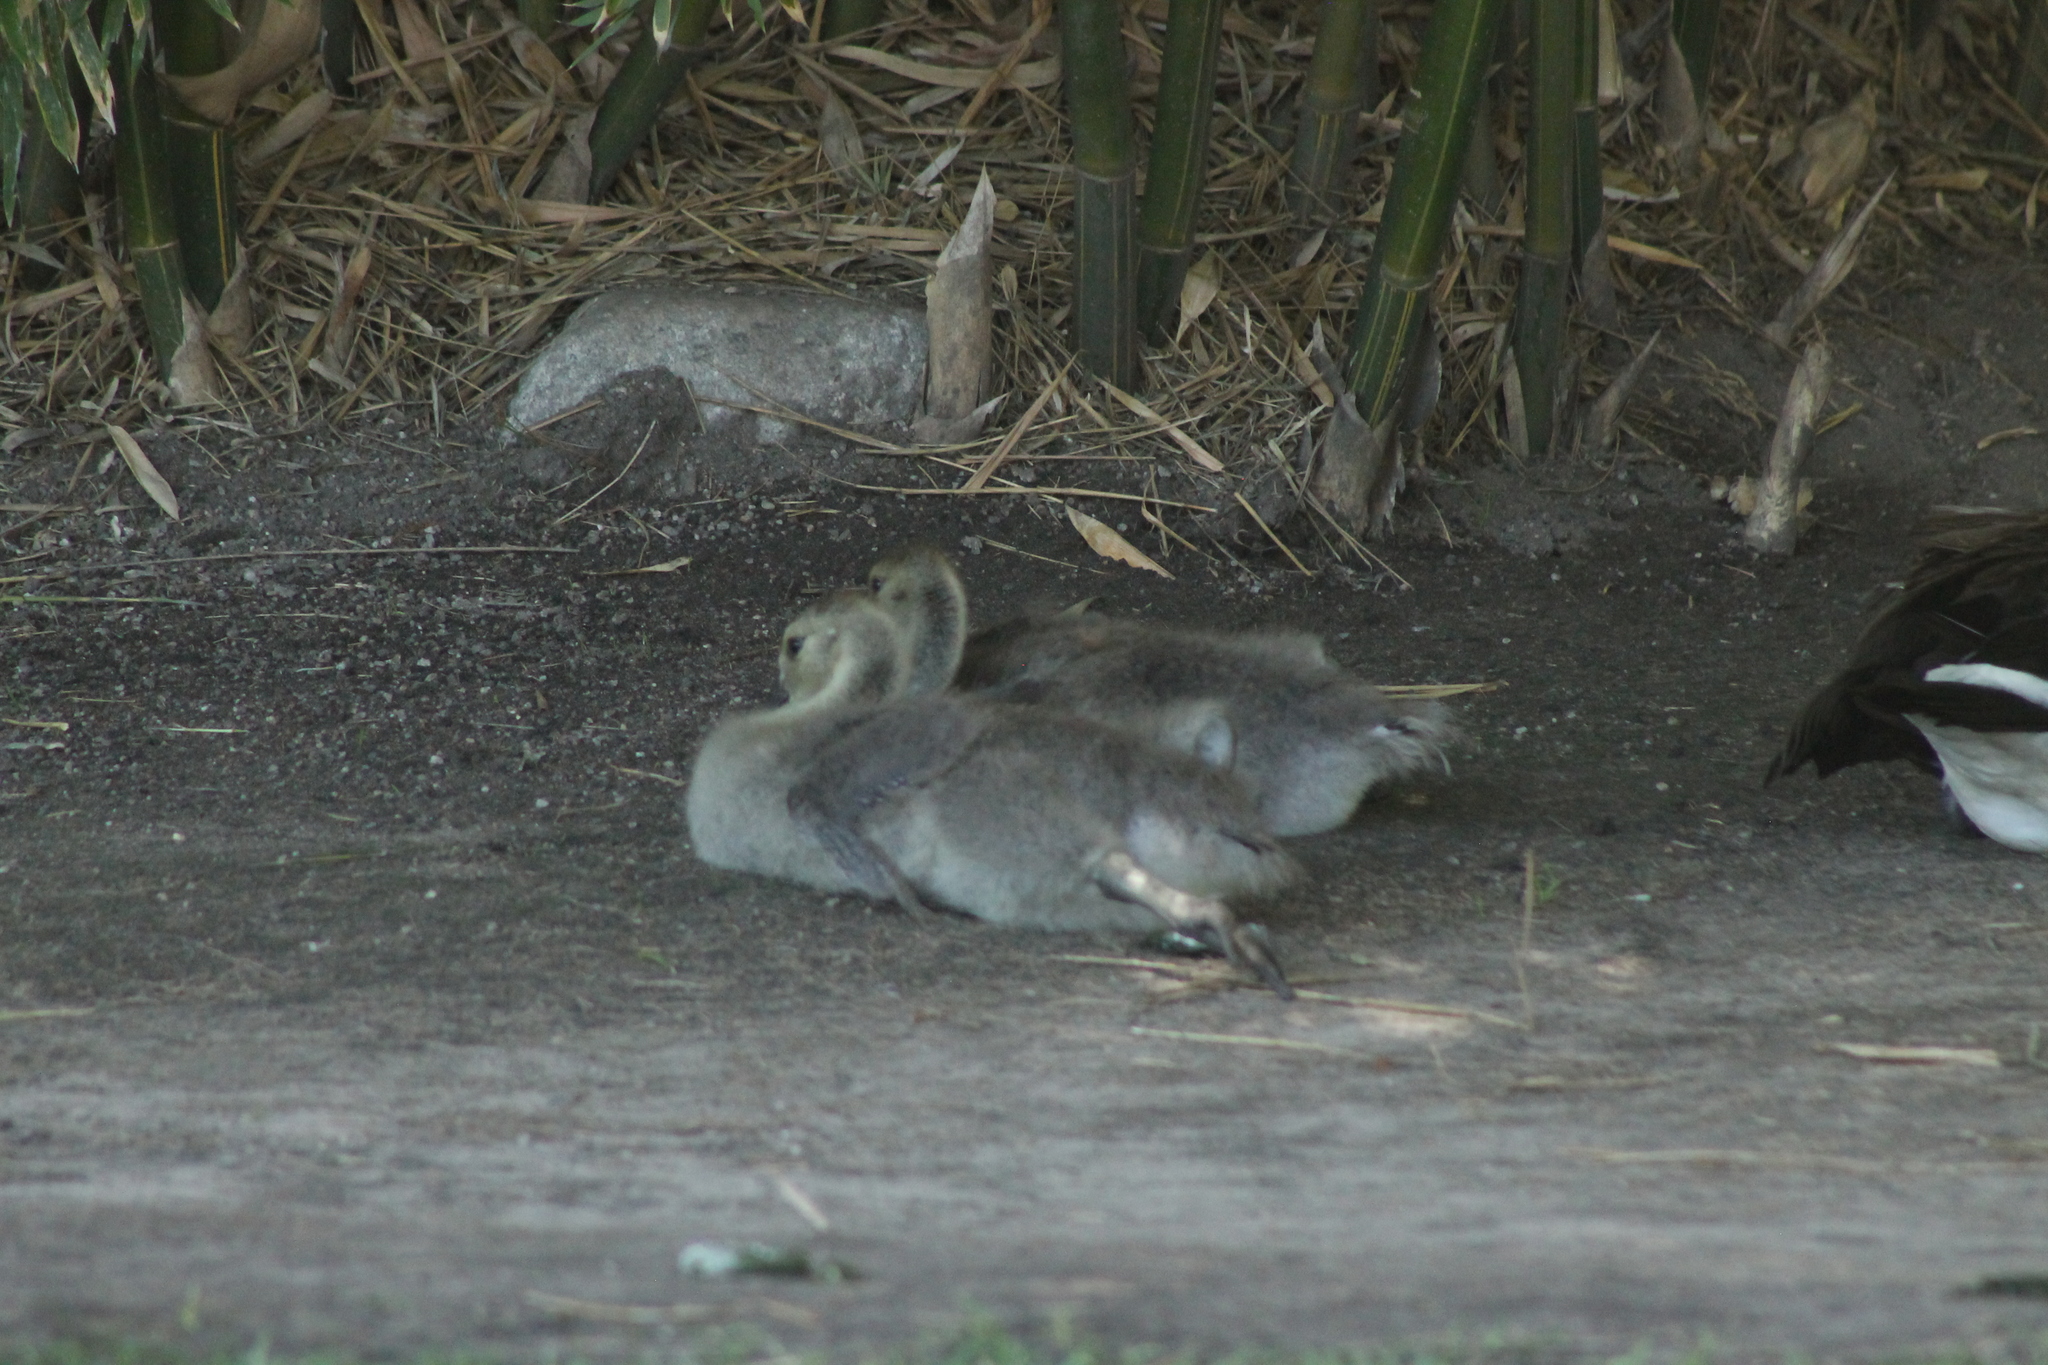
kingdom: Animalia
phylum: Chordata
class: Aves
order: Anseriformes
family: Anatidae
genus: Branta
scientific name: Branta canadensis
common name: Canada goose
